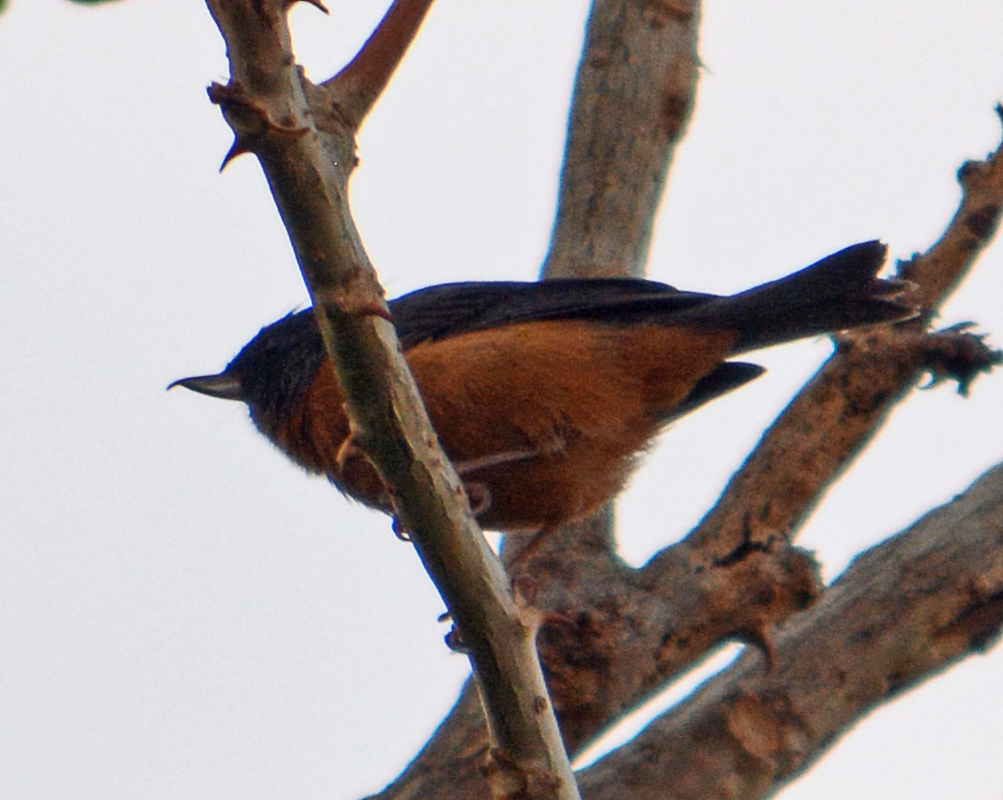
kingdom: Animalia
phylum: Chordata
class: Aves
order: Passeriformes
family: Thraupidae
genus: Diglossa
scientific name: Diglossa baritula
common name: Cinnamon-bellied flowerpiercer
